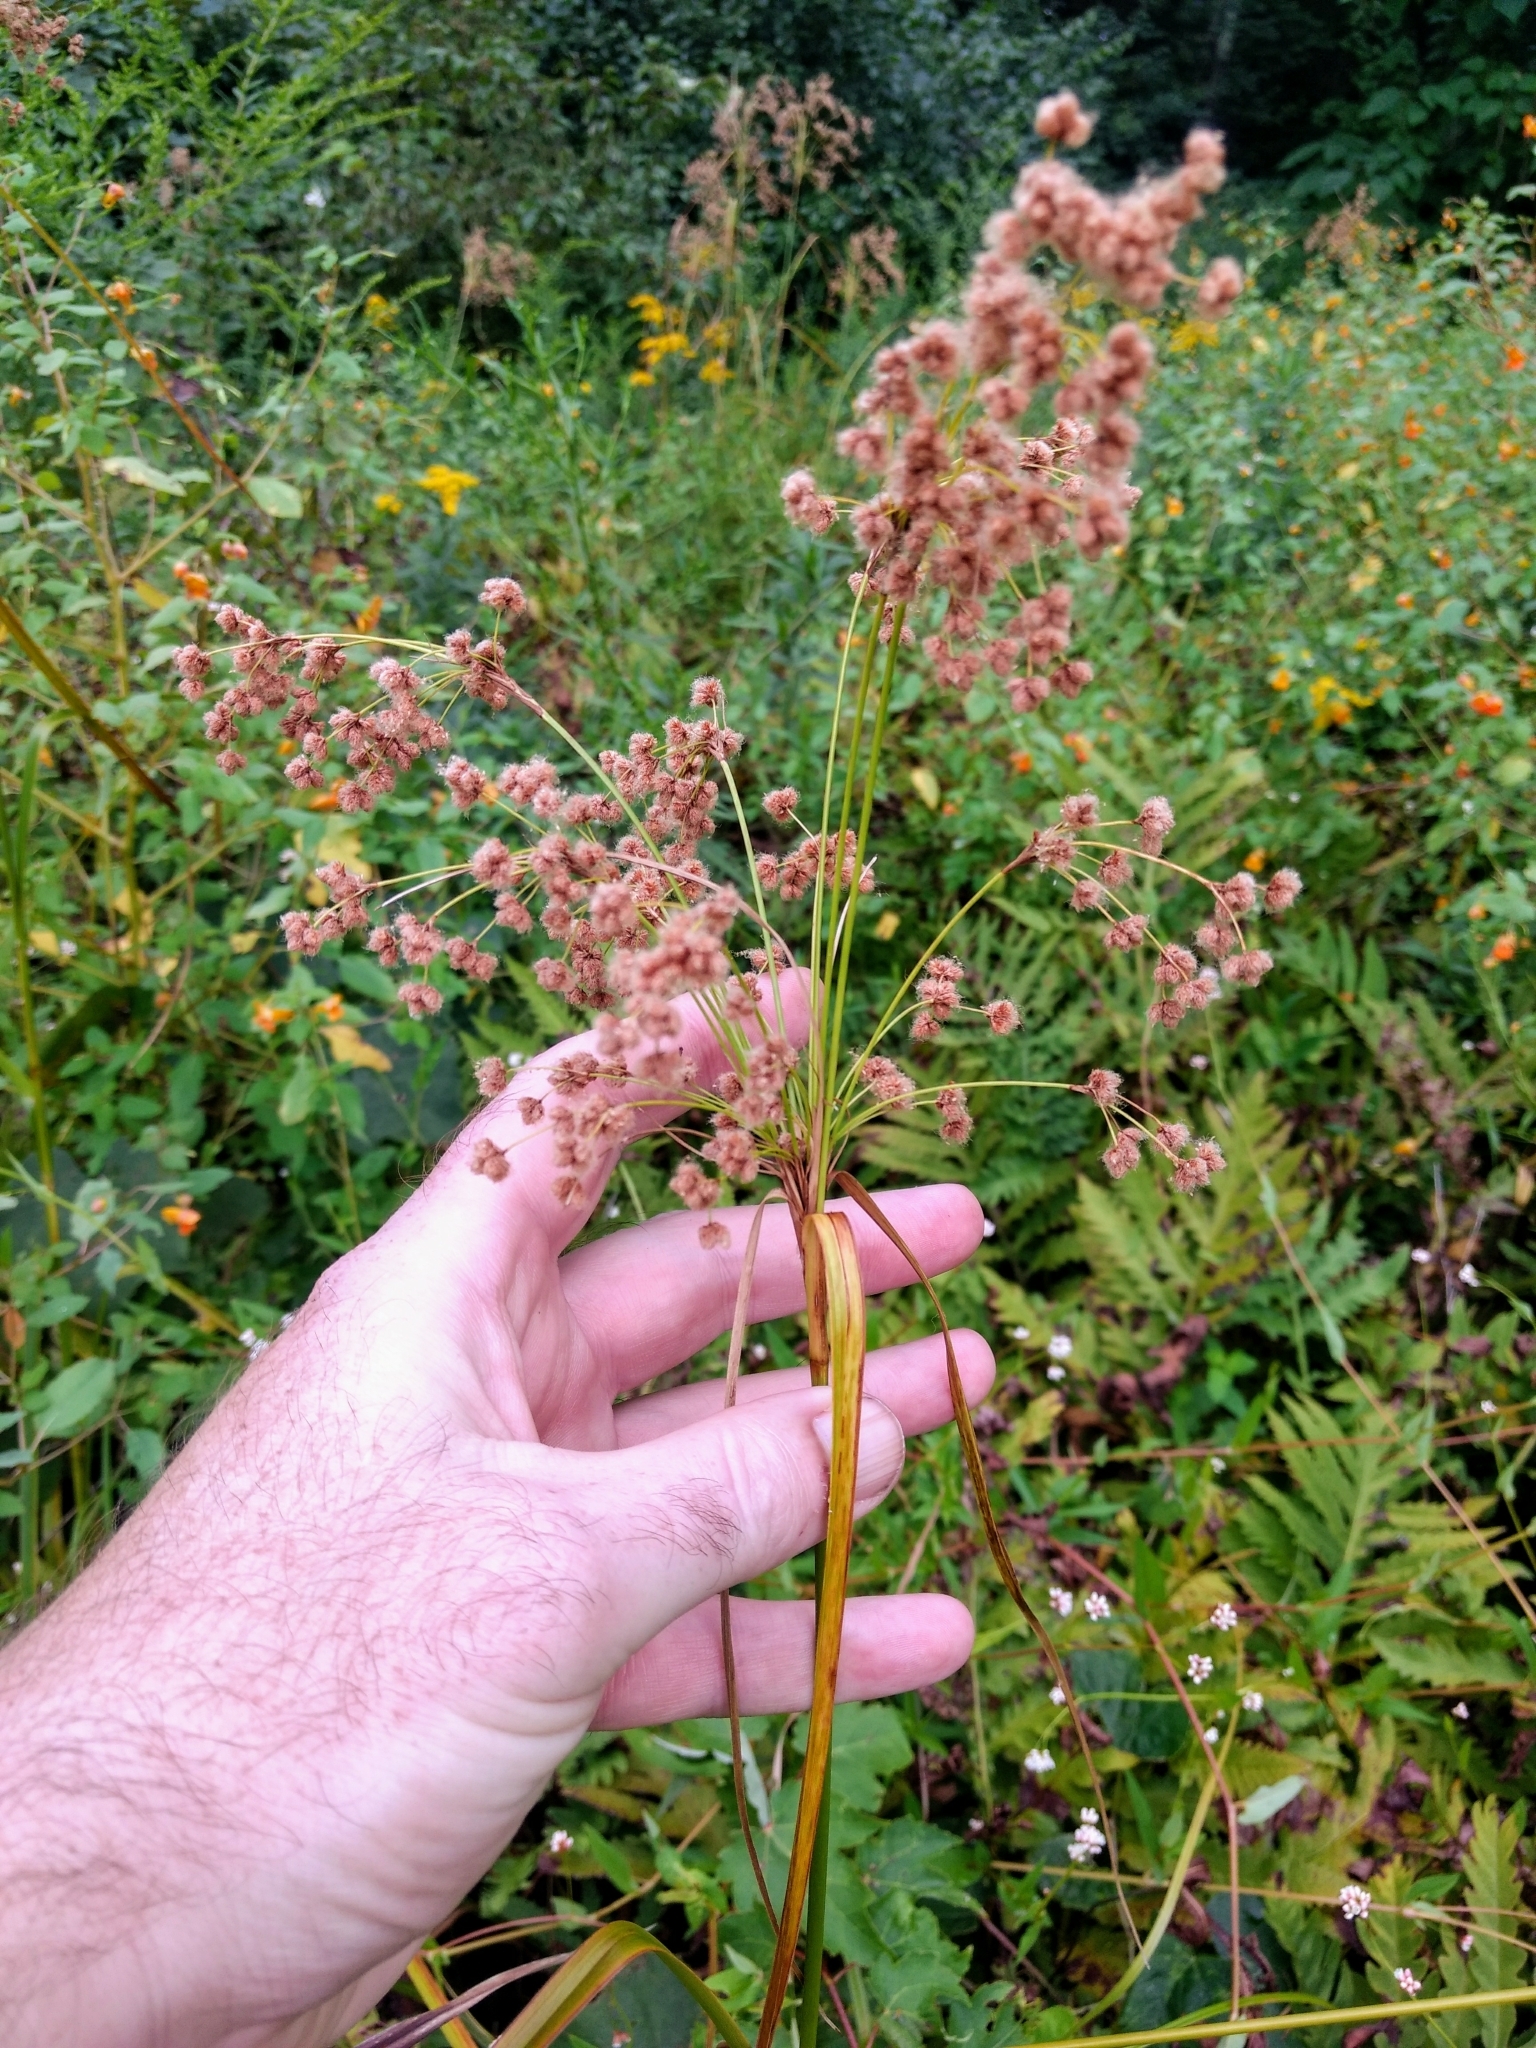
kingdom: Plantae
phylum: Tracheophyta
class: Liliopsida
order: Poales
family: Cyperaceae
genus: Scirpus
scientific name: Scirpus cyperinus
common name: Black-sheathed bulrush
